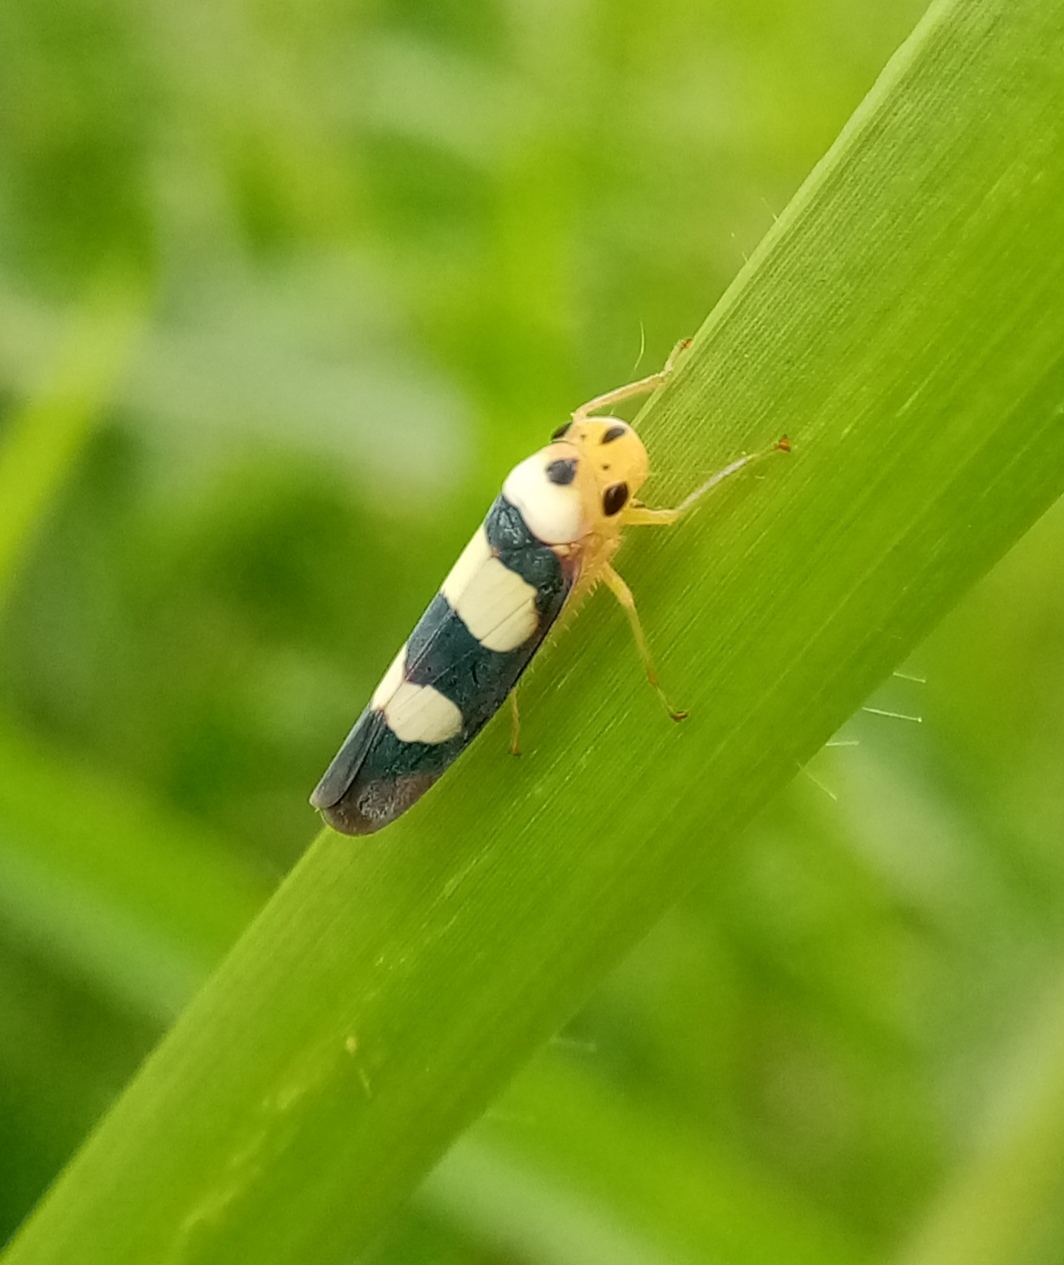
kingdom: Animalia
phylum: Arthropoda
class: Insecta
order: Hemiptera
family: Cicadellidae
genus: Tettisama
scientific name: Tettisama bisellata
